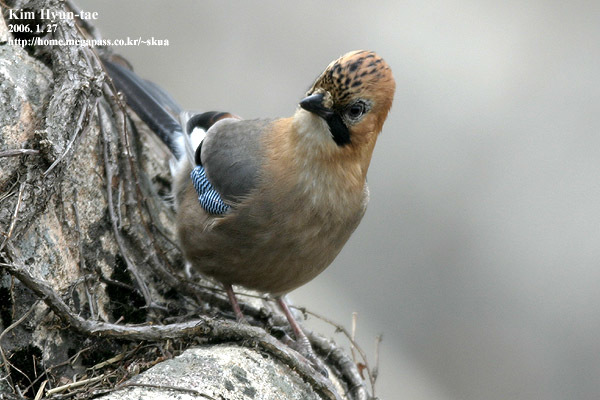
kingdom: Animalia
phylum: Chordata
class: Aves
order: Passeriformes
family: Corvidae
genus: Garrulus
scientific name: Garrulus glandarius
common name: Eurasian jay
